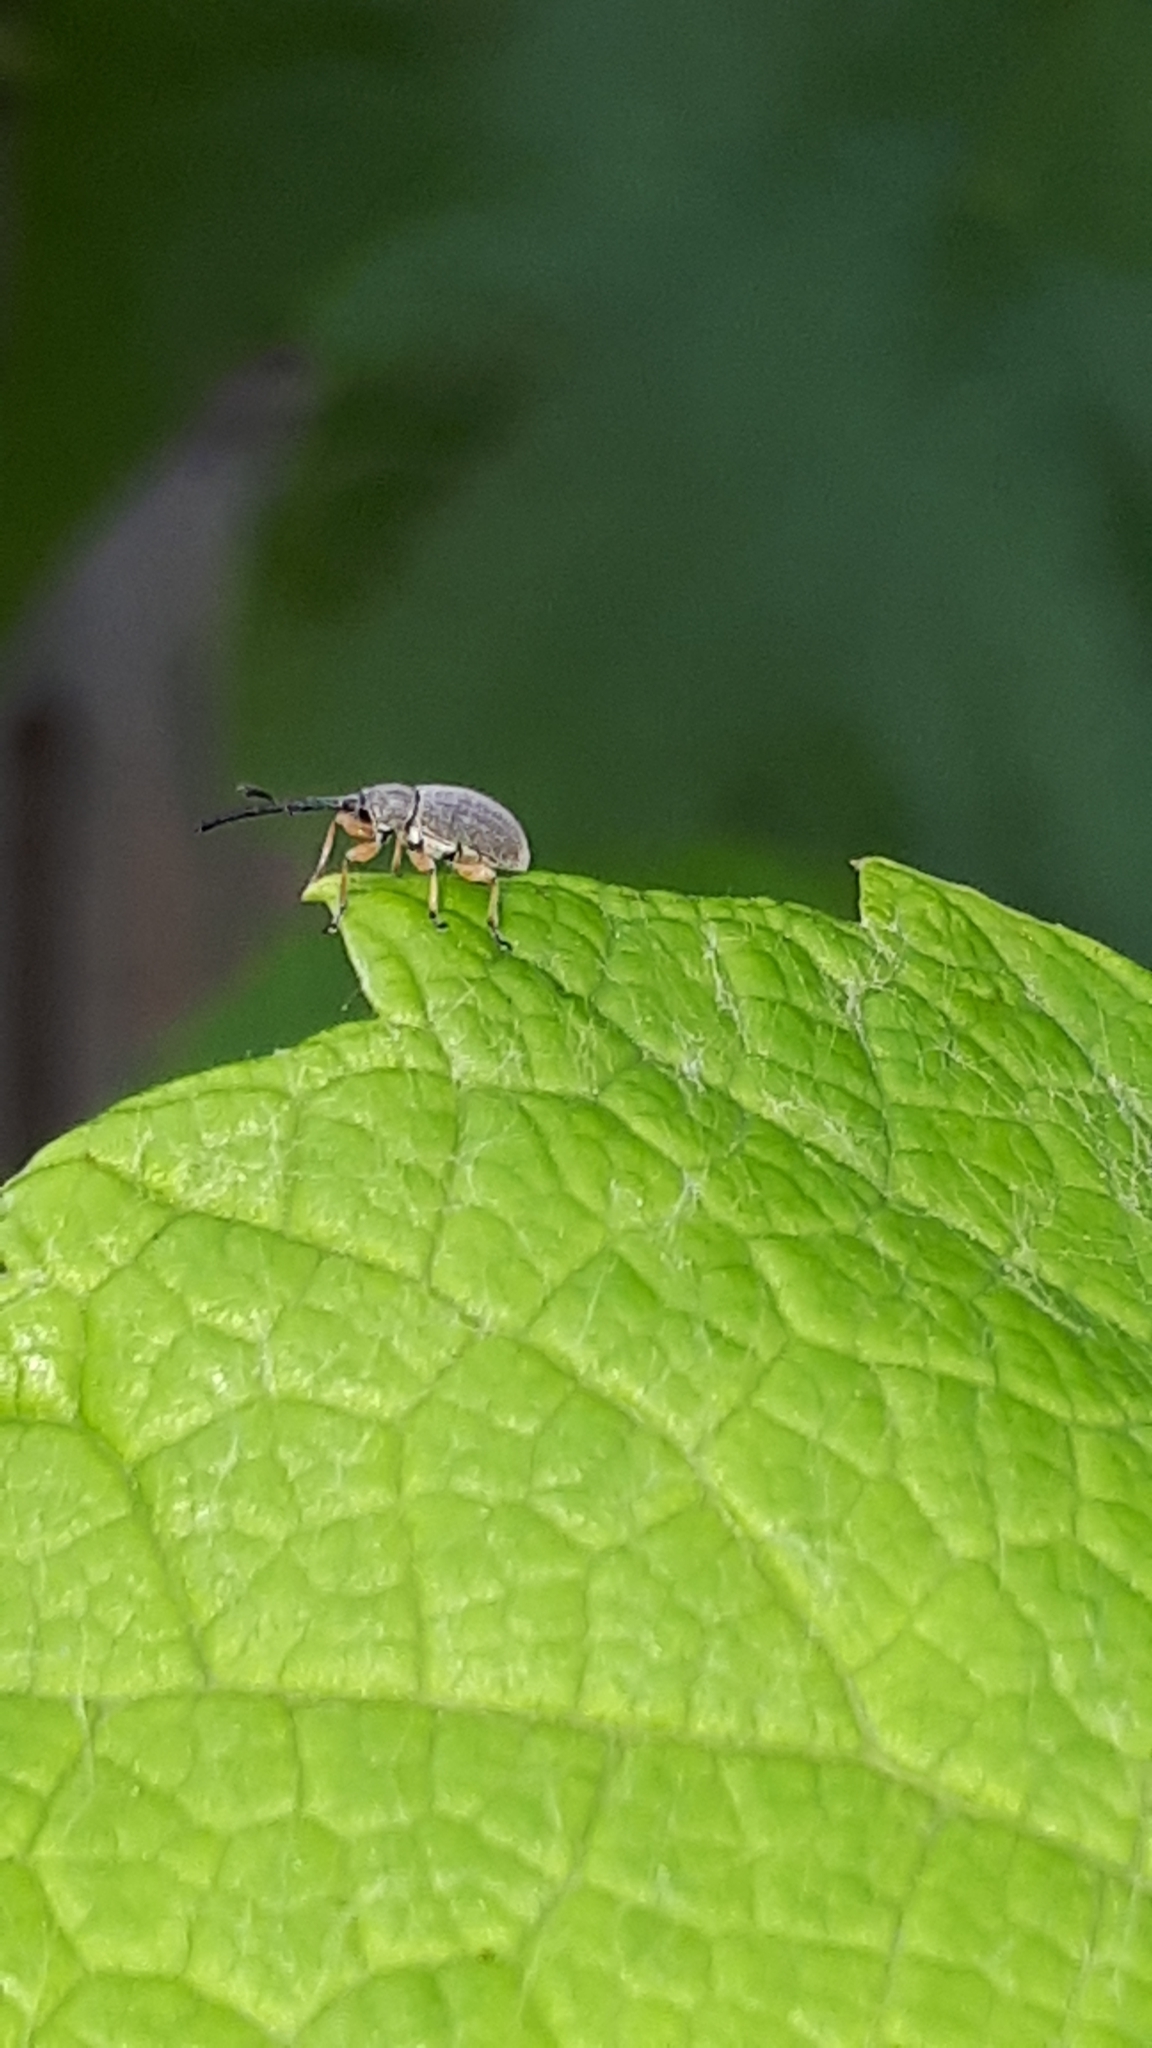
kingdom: Animalia
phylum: Arthropoda
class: Insecta
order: Coleoptera
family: Brentidae
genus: Rhopalapion
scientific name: Rhopalapion longirostre
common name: Hollyhock weevil
